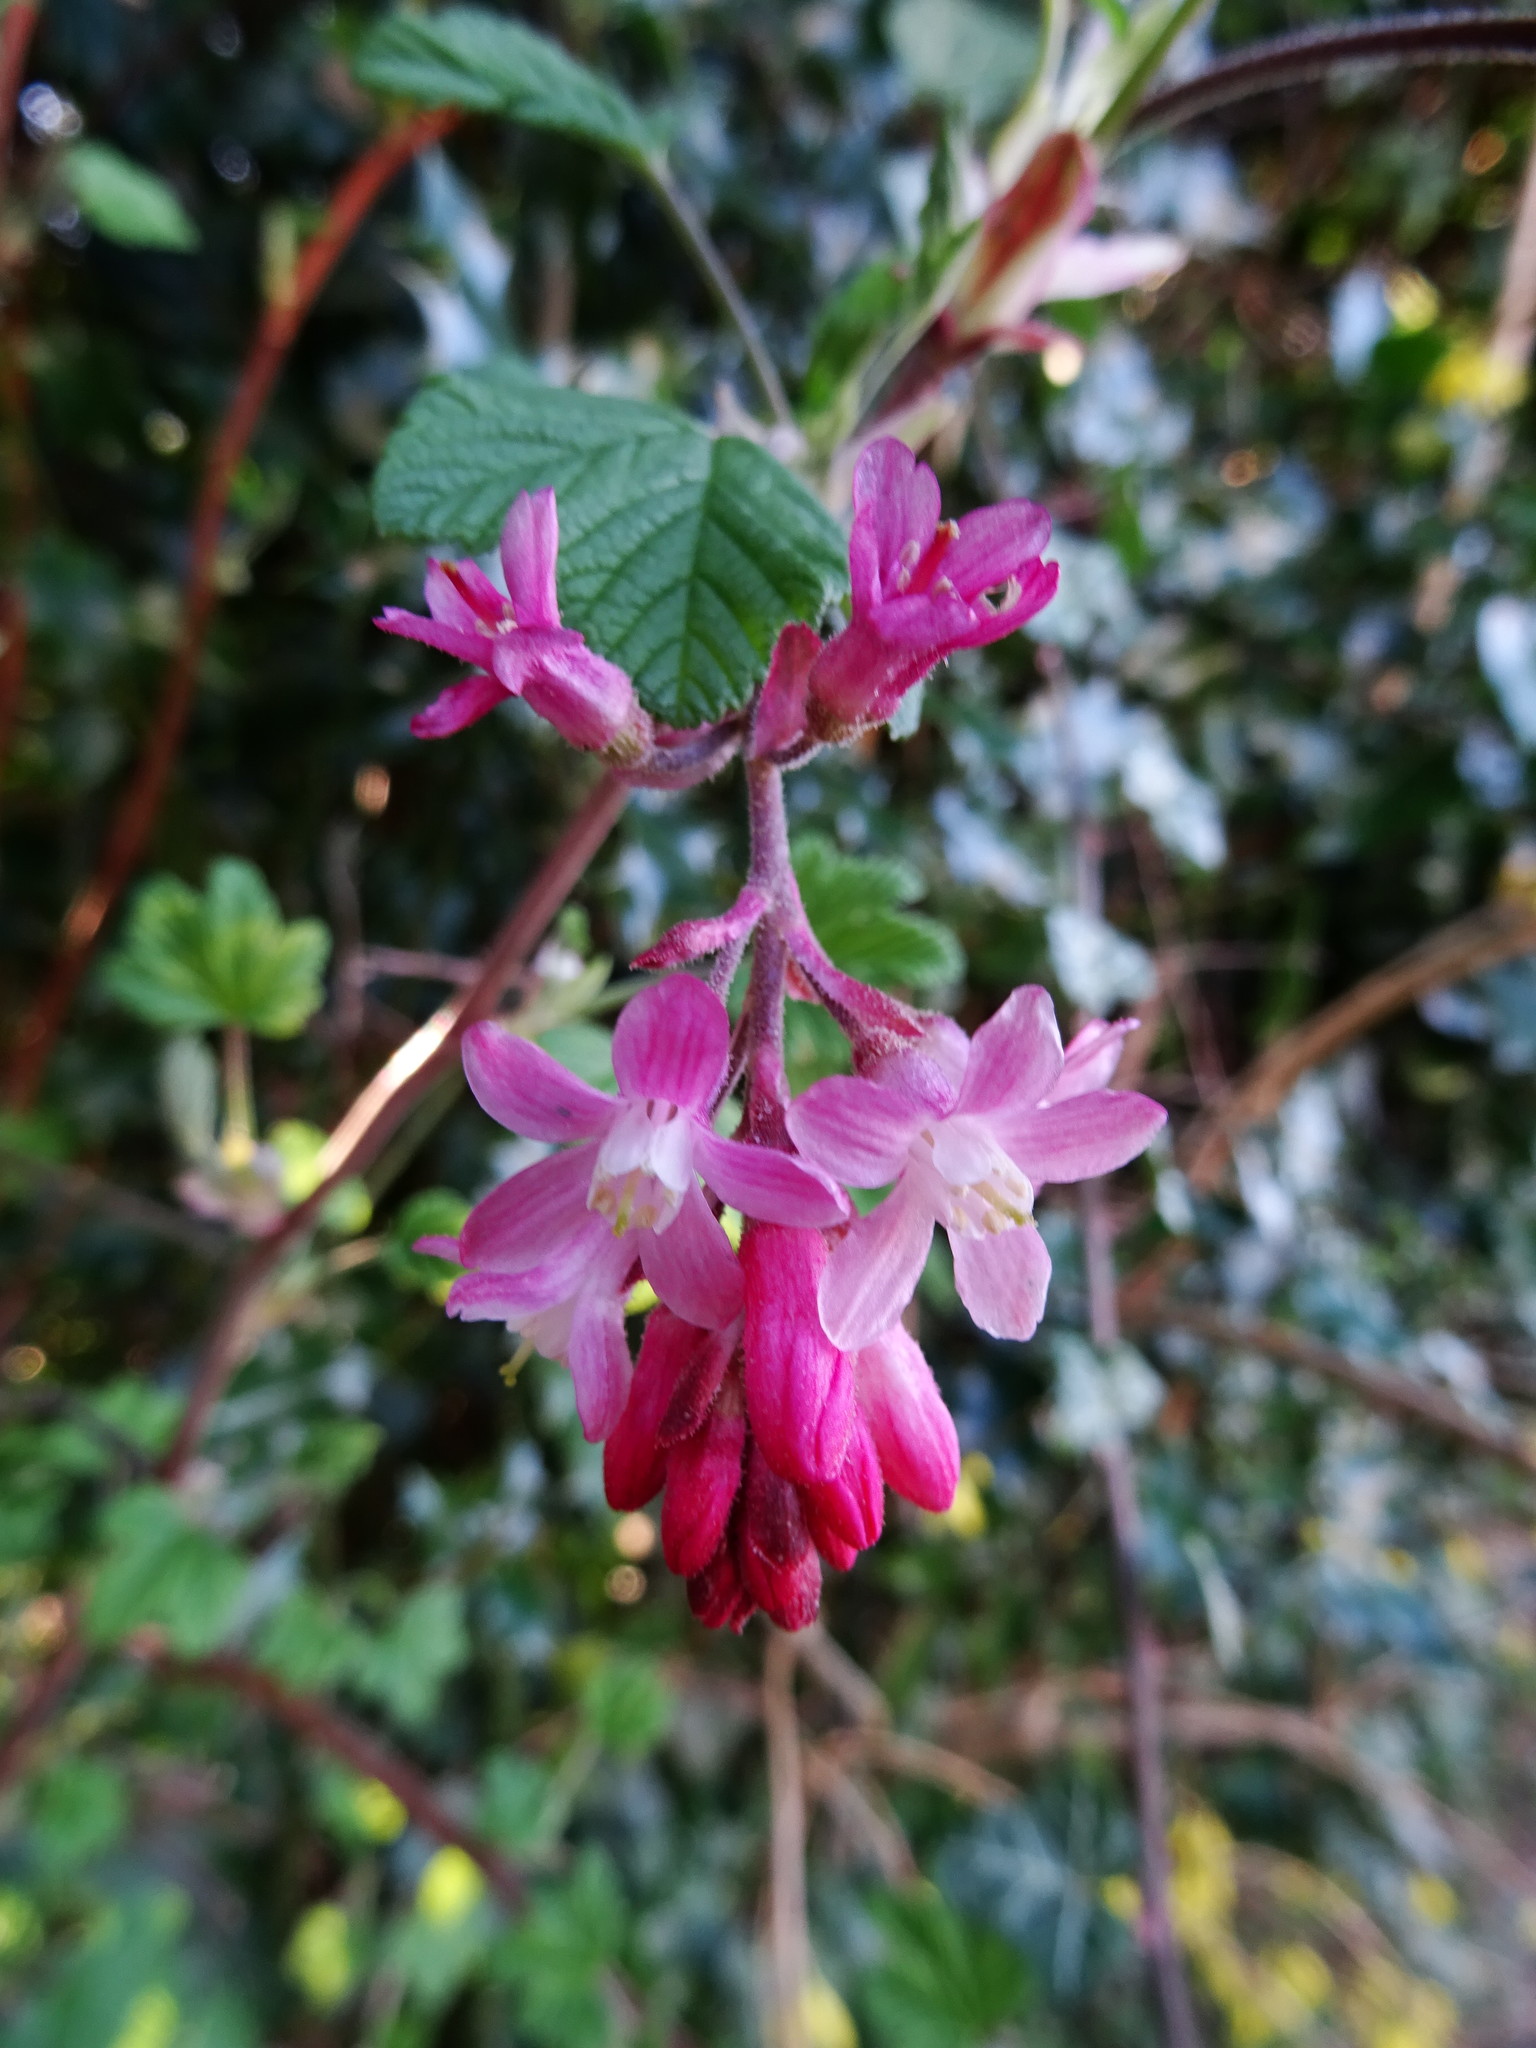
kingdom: Plantae
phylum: Tracheophyta
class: Magnoliopsida
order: Saxifragales
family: Grossulariaceae
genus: Ribes
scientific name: Ribes sanguineum
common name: Flowering currant
